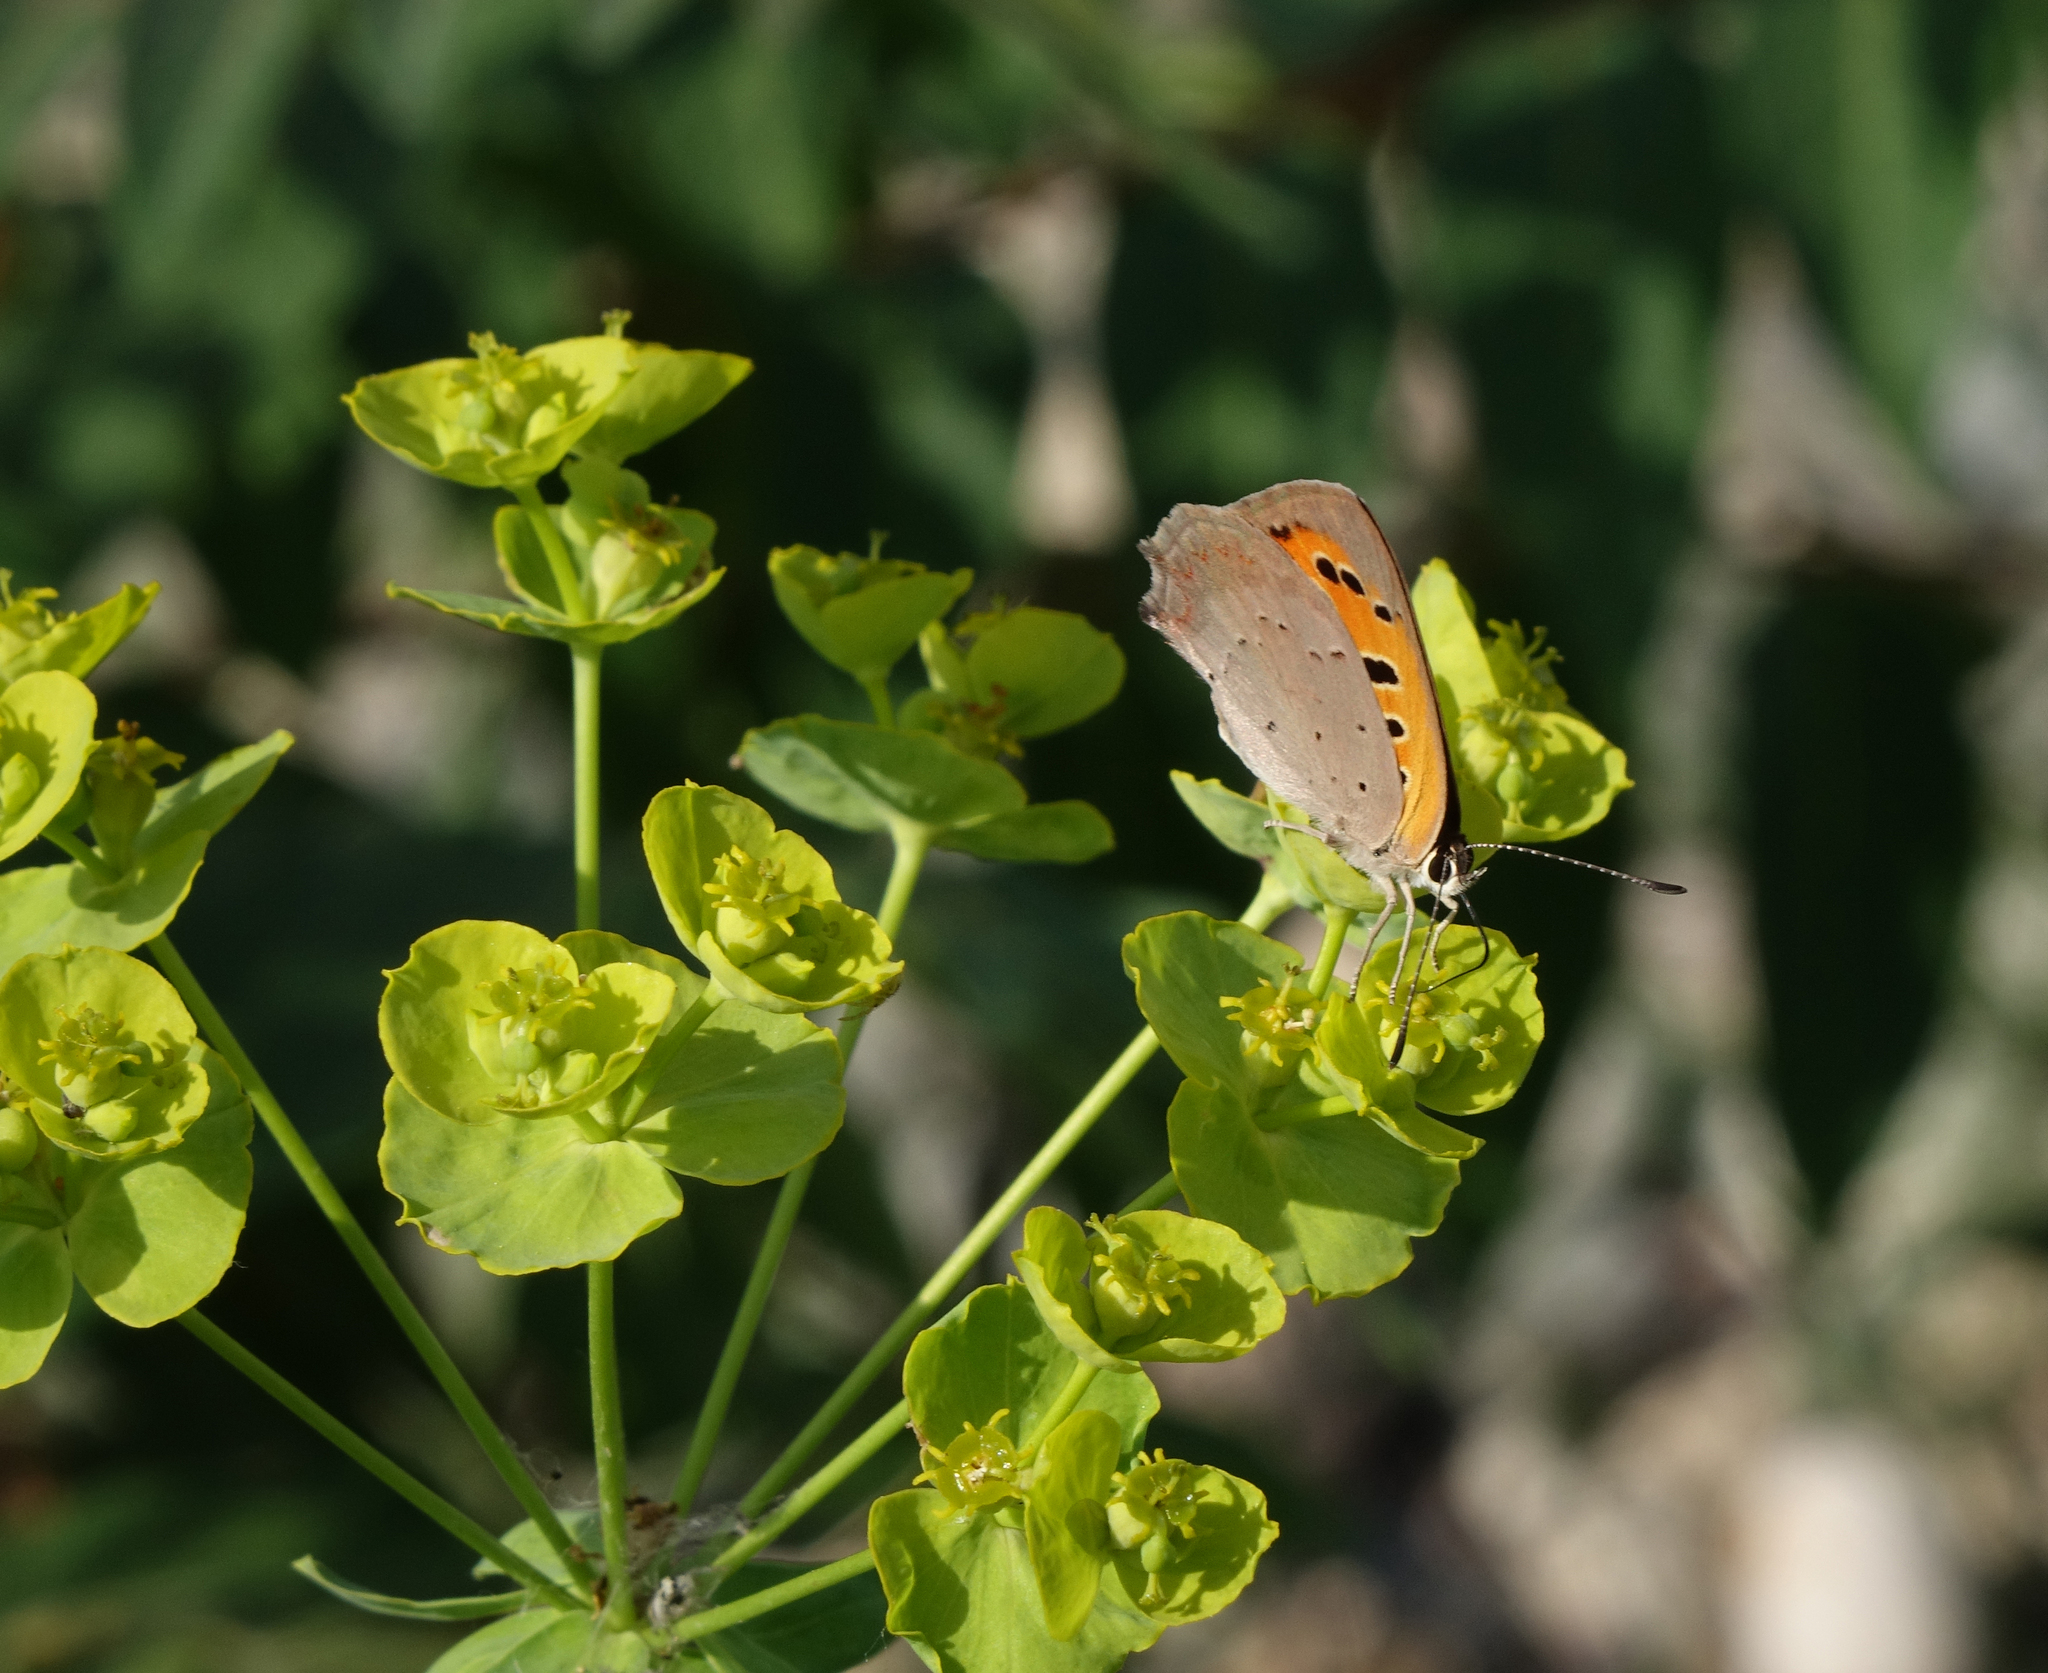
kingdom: Plantae
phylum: Tracheophyta
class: Magnoliopsida
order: Malpighiales
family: Euphorbiaceae
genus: Euphorbia
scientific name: Euphorbia virgata
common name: Leafy spurge
